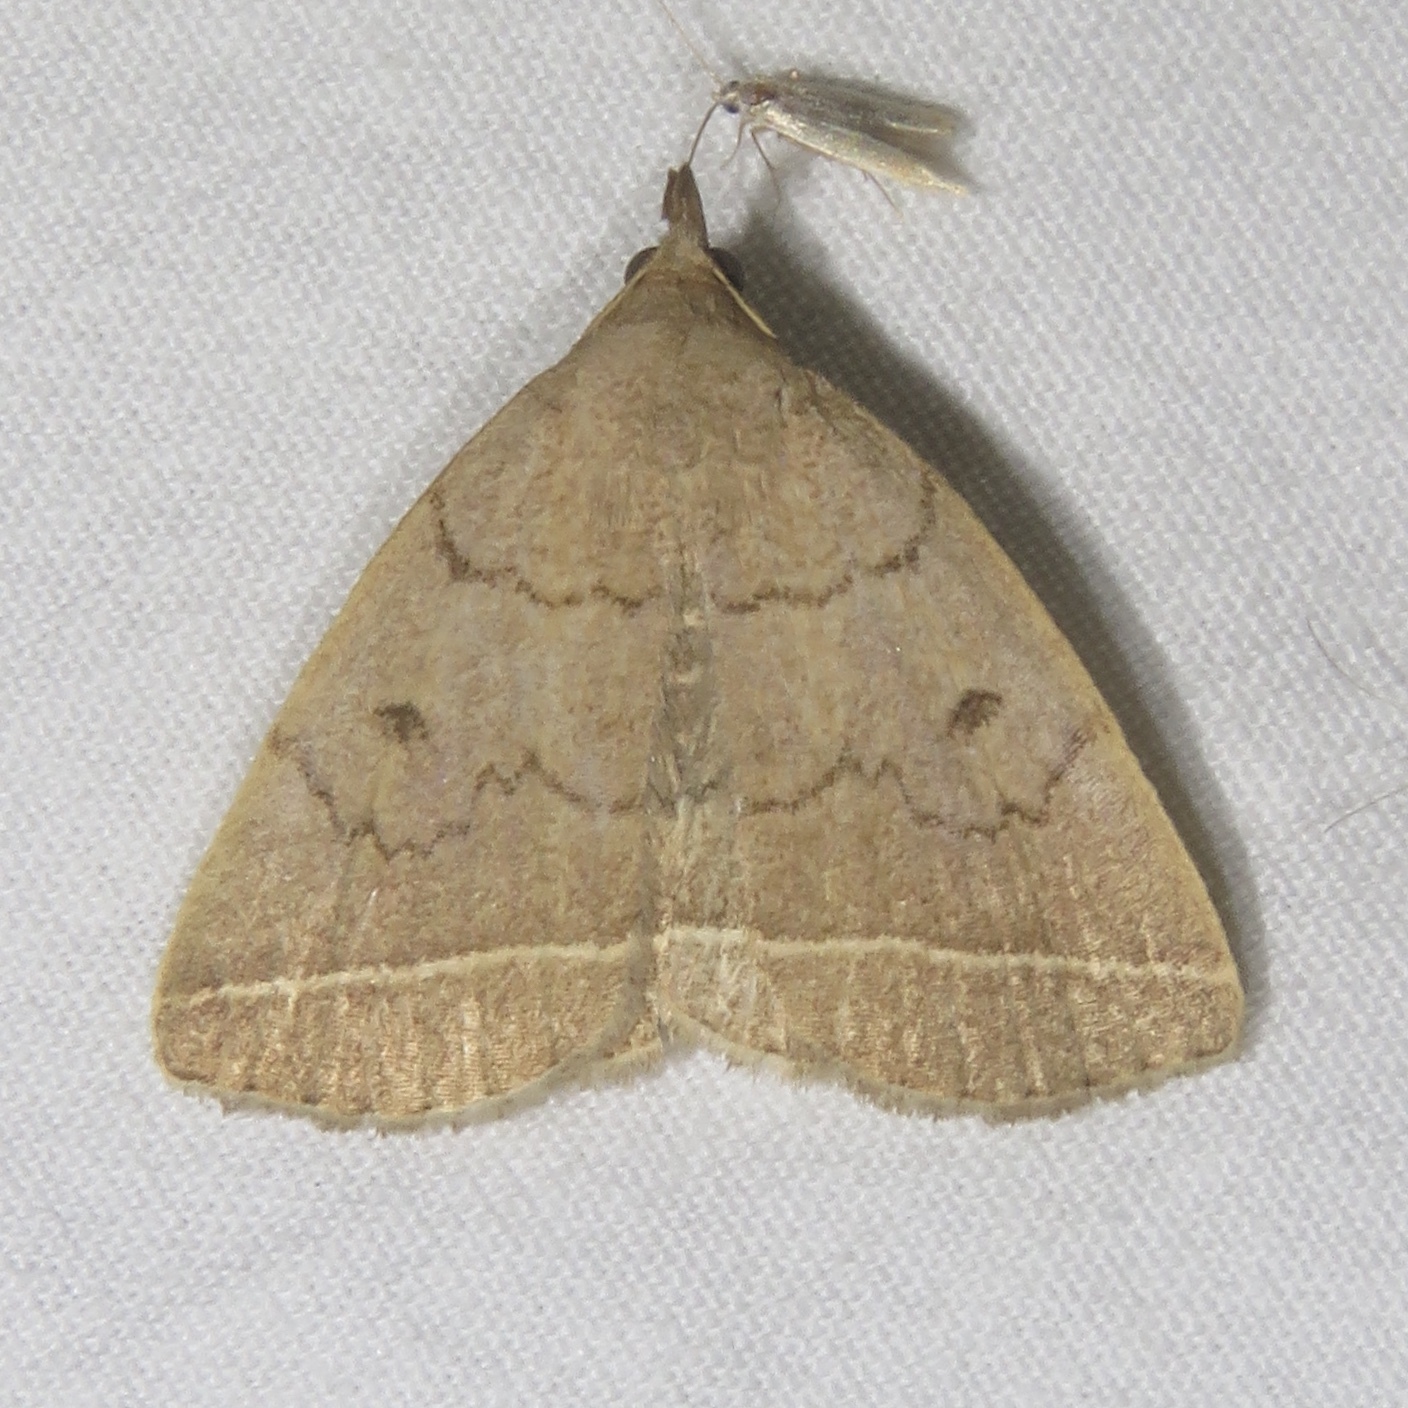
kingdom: Animalia
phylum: Arthropoda
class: Insecta
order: Lepidoptera
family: Erebidae
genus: Zanclognatha
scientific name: Zanclognatha marcidilinea
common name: Yellowish fan-foot
